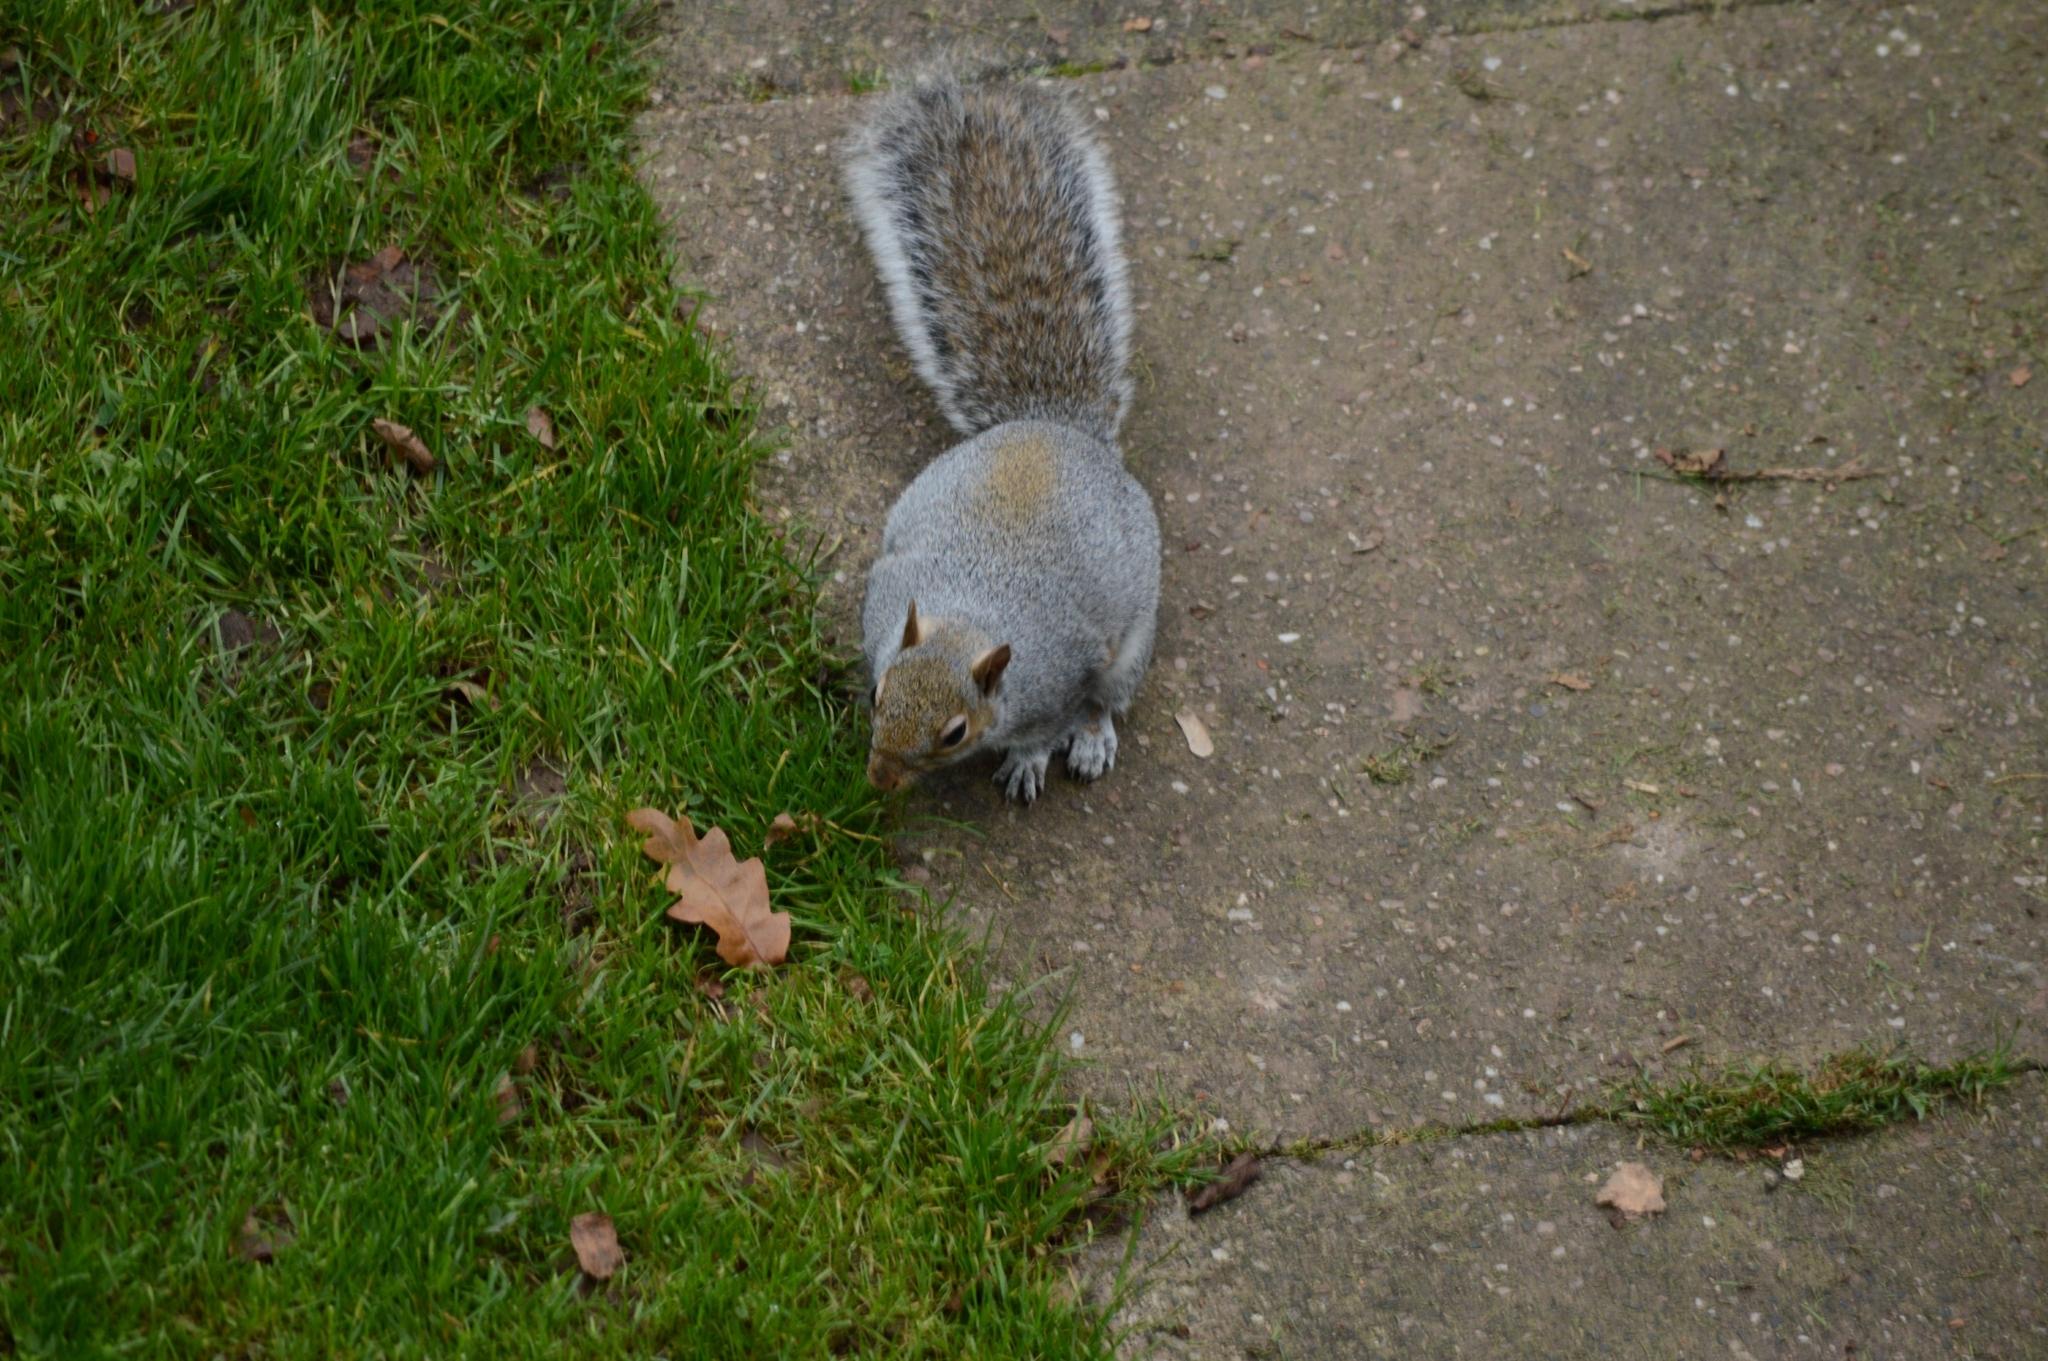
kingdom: Animalia
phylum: Chordata
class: Mammalia
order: Rodentia
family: Sciuridae
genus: Sciurus
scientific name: Sciurus carolinensis
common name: Eastern gray squirrel
